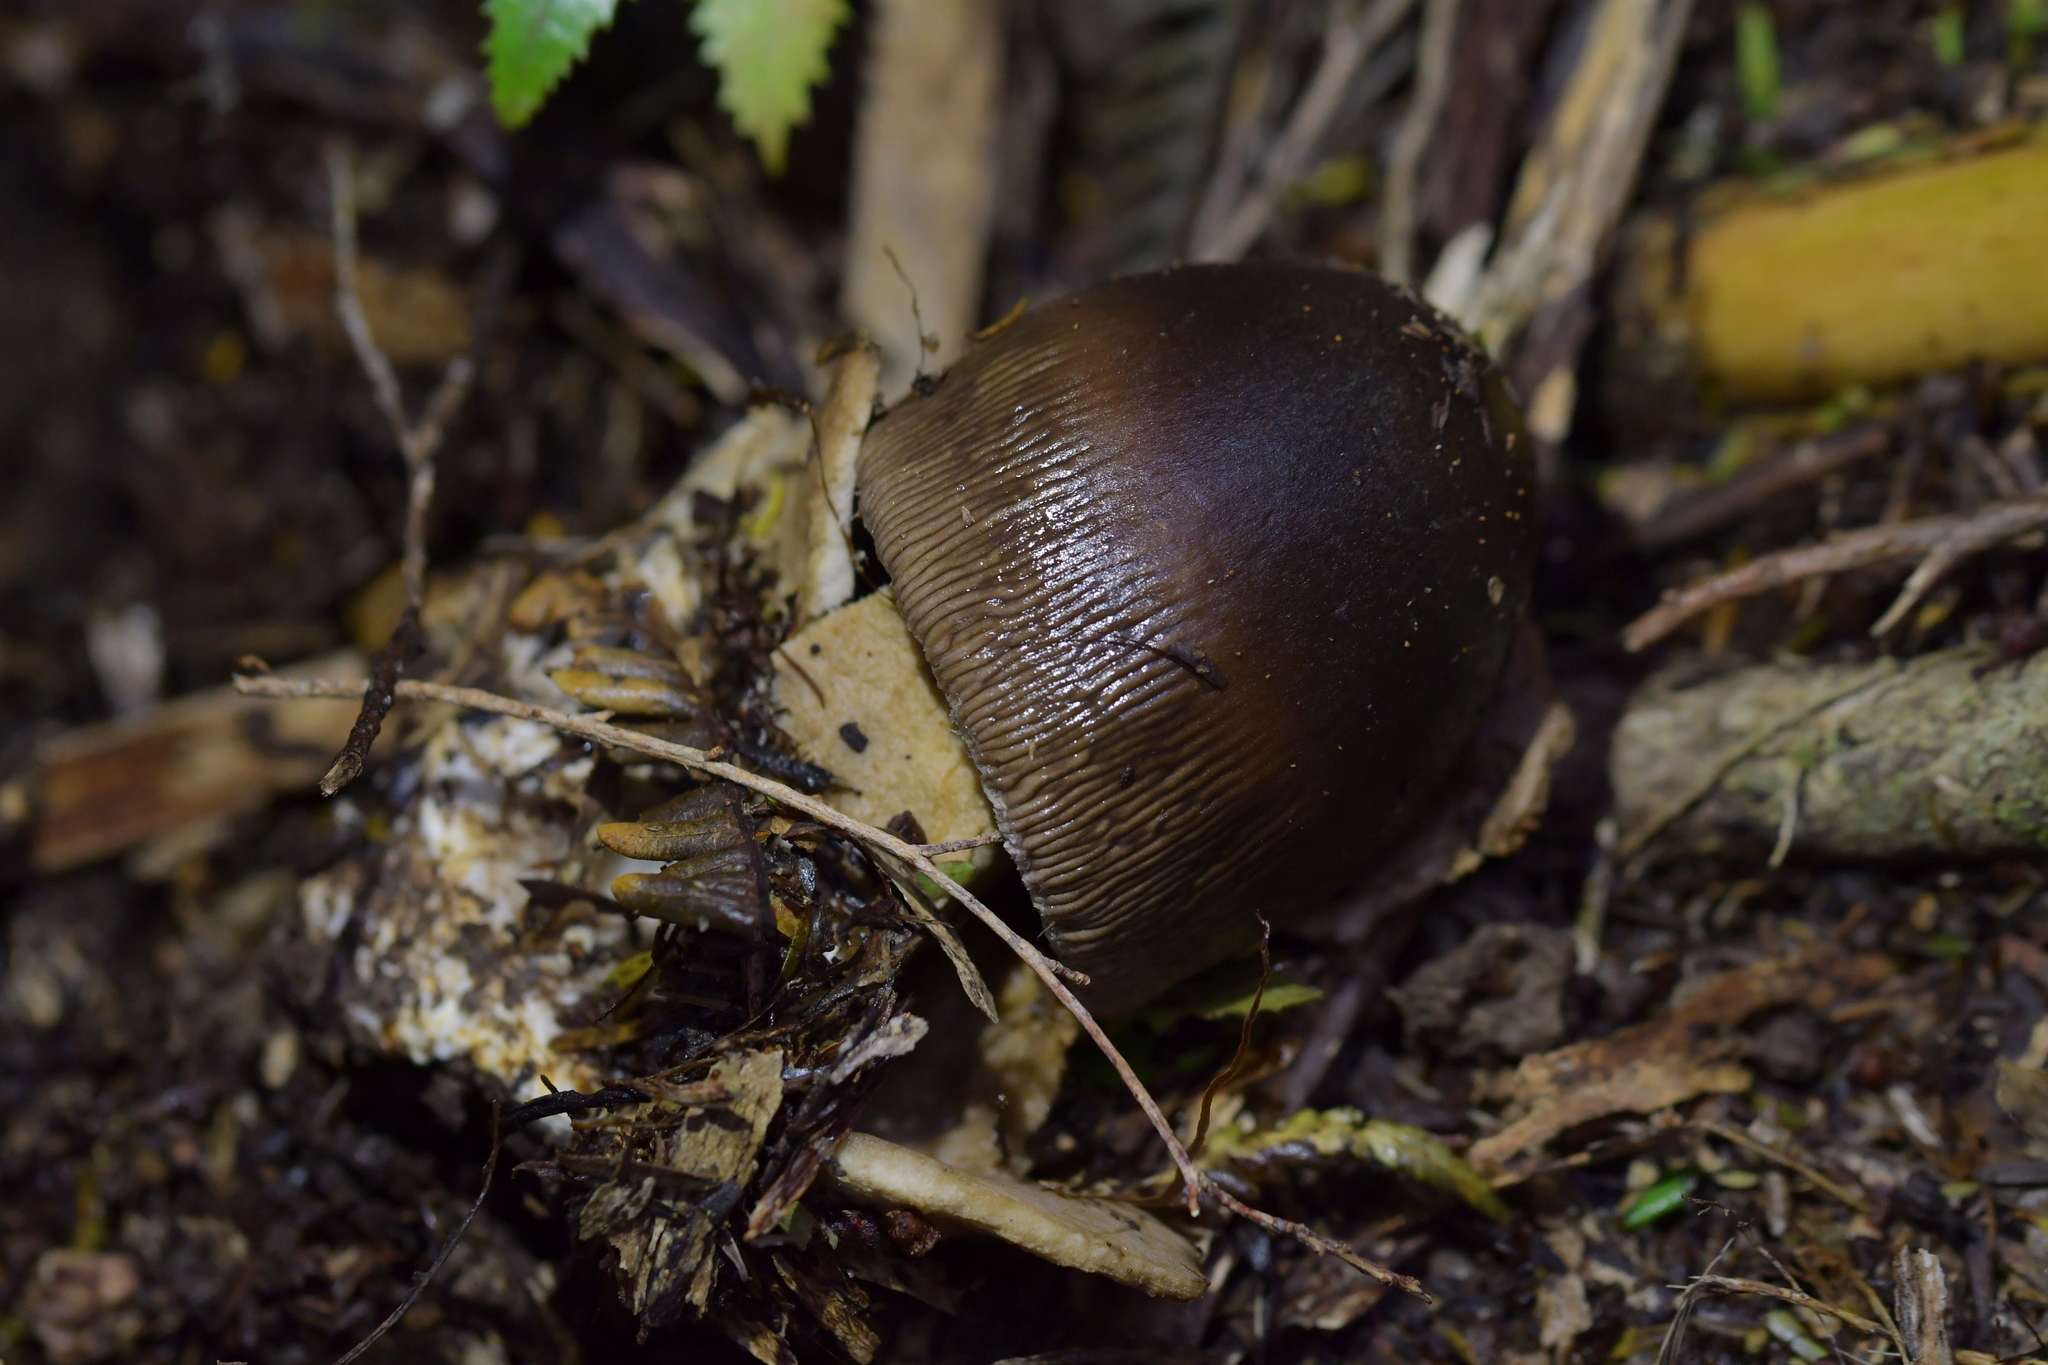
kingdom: Fungi
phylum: Basidiomycota
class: Agaricomycetes
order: Agaricales
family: Amanitaceae
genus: Amanita
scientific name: Amanita pekeoides
